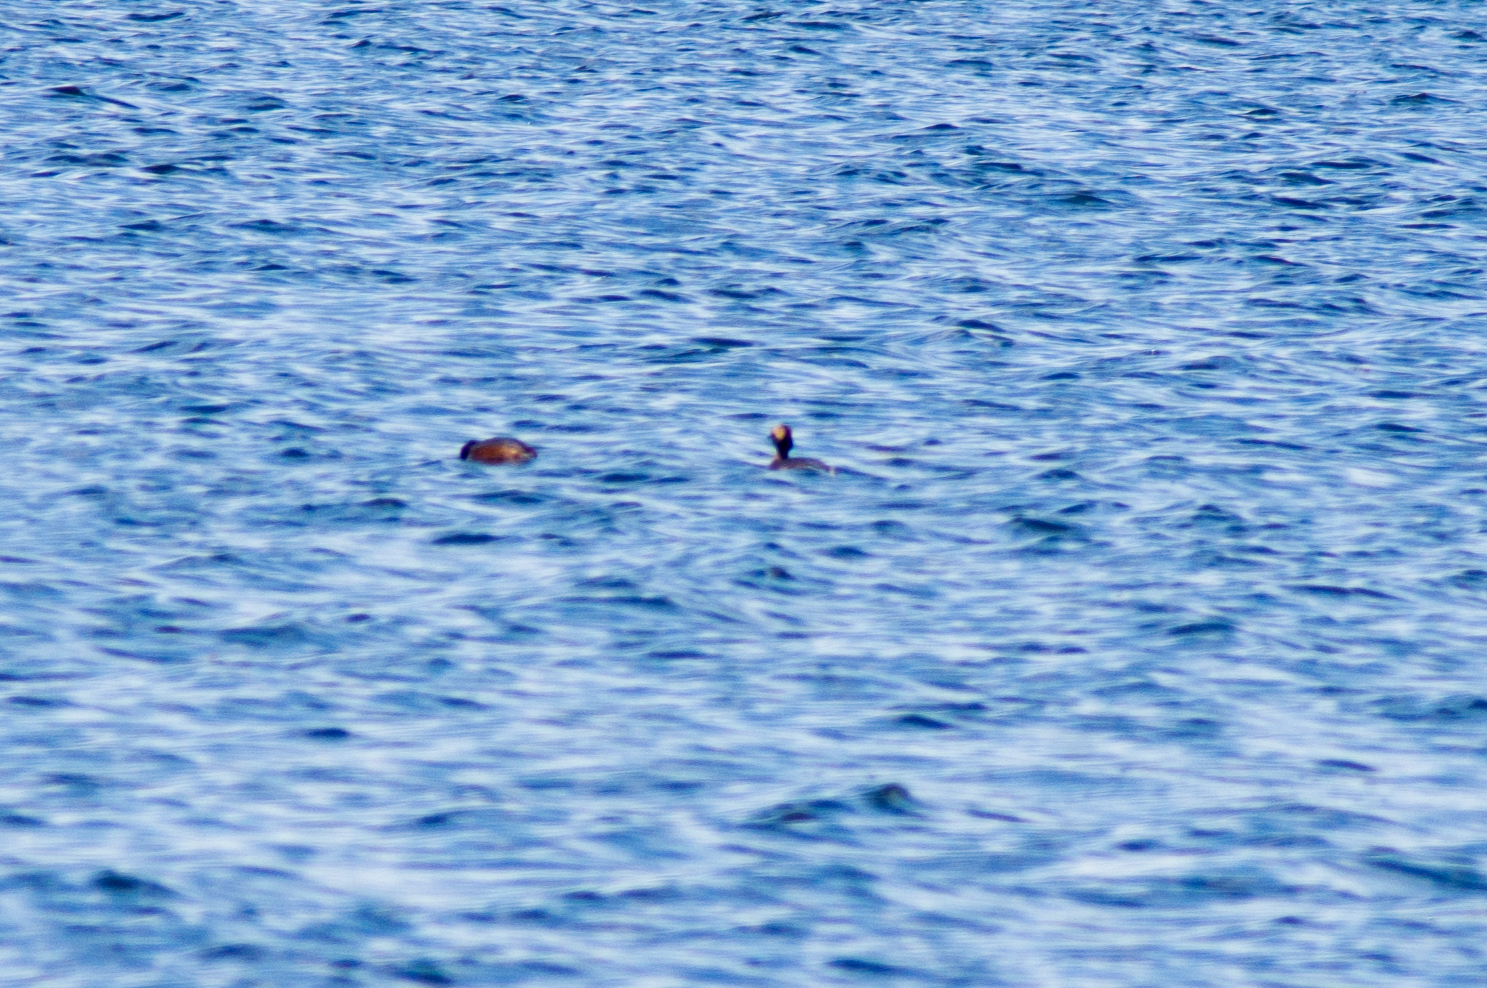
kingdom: Animalia
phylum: Chordata
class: Aves
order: Podicipediformes
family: Podicipedidae
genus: Podiceps
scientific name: Podiceps auritus
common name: Horned grebe
